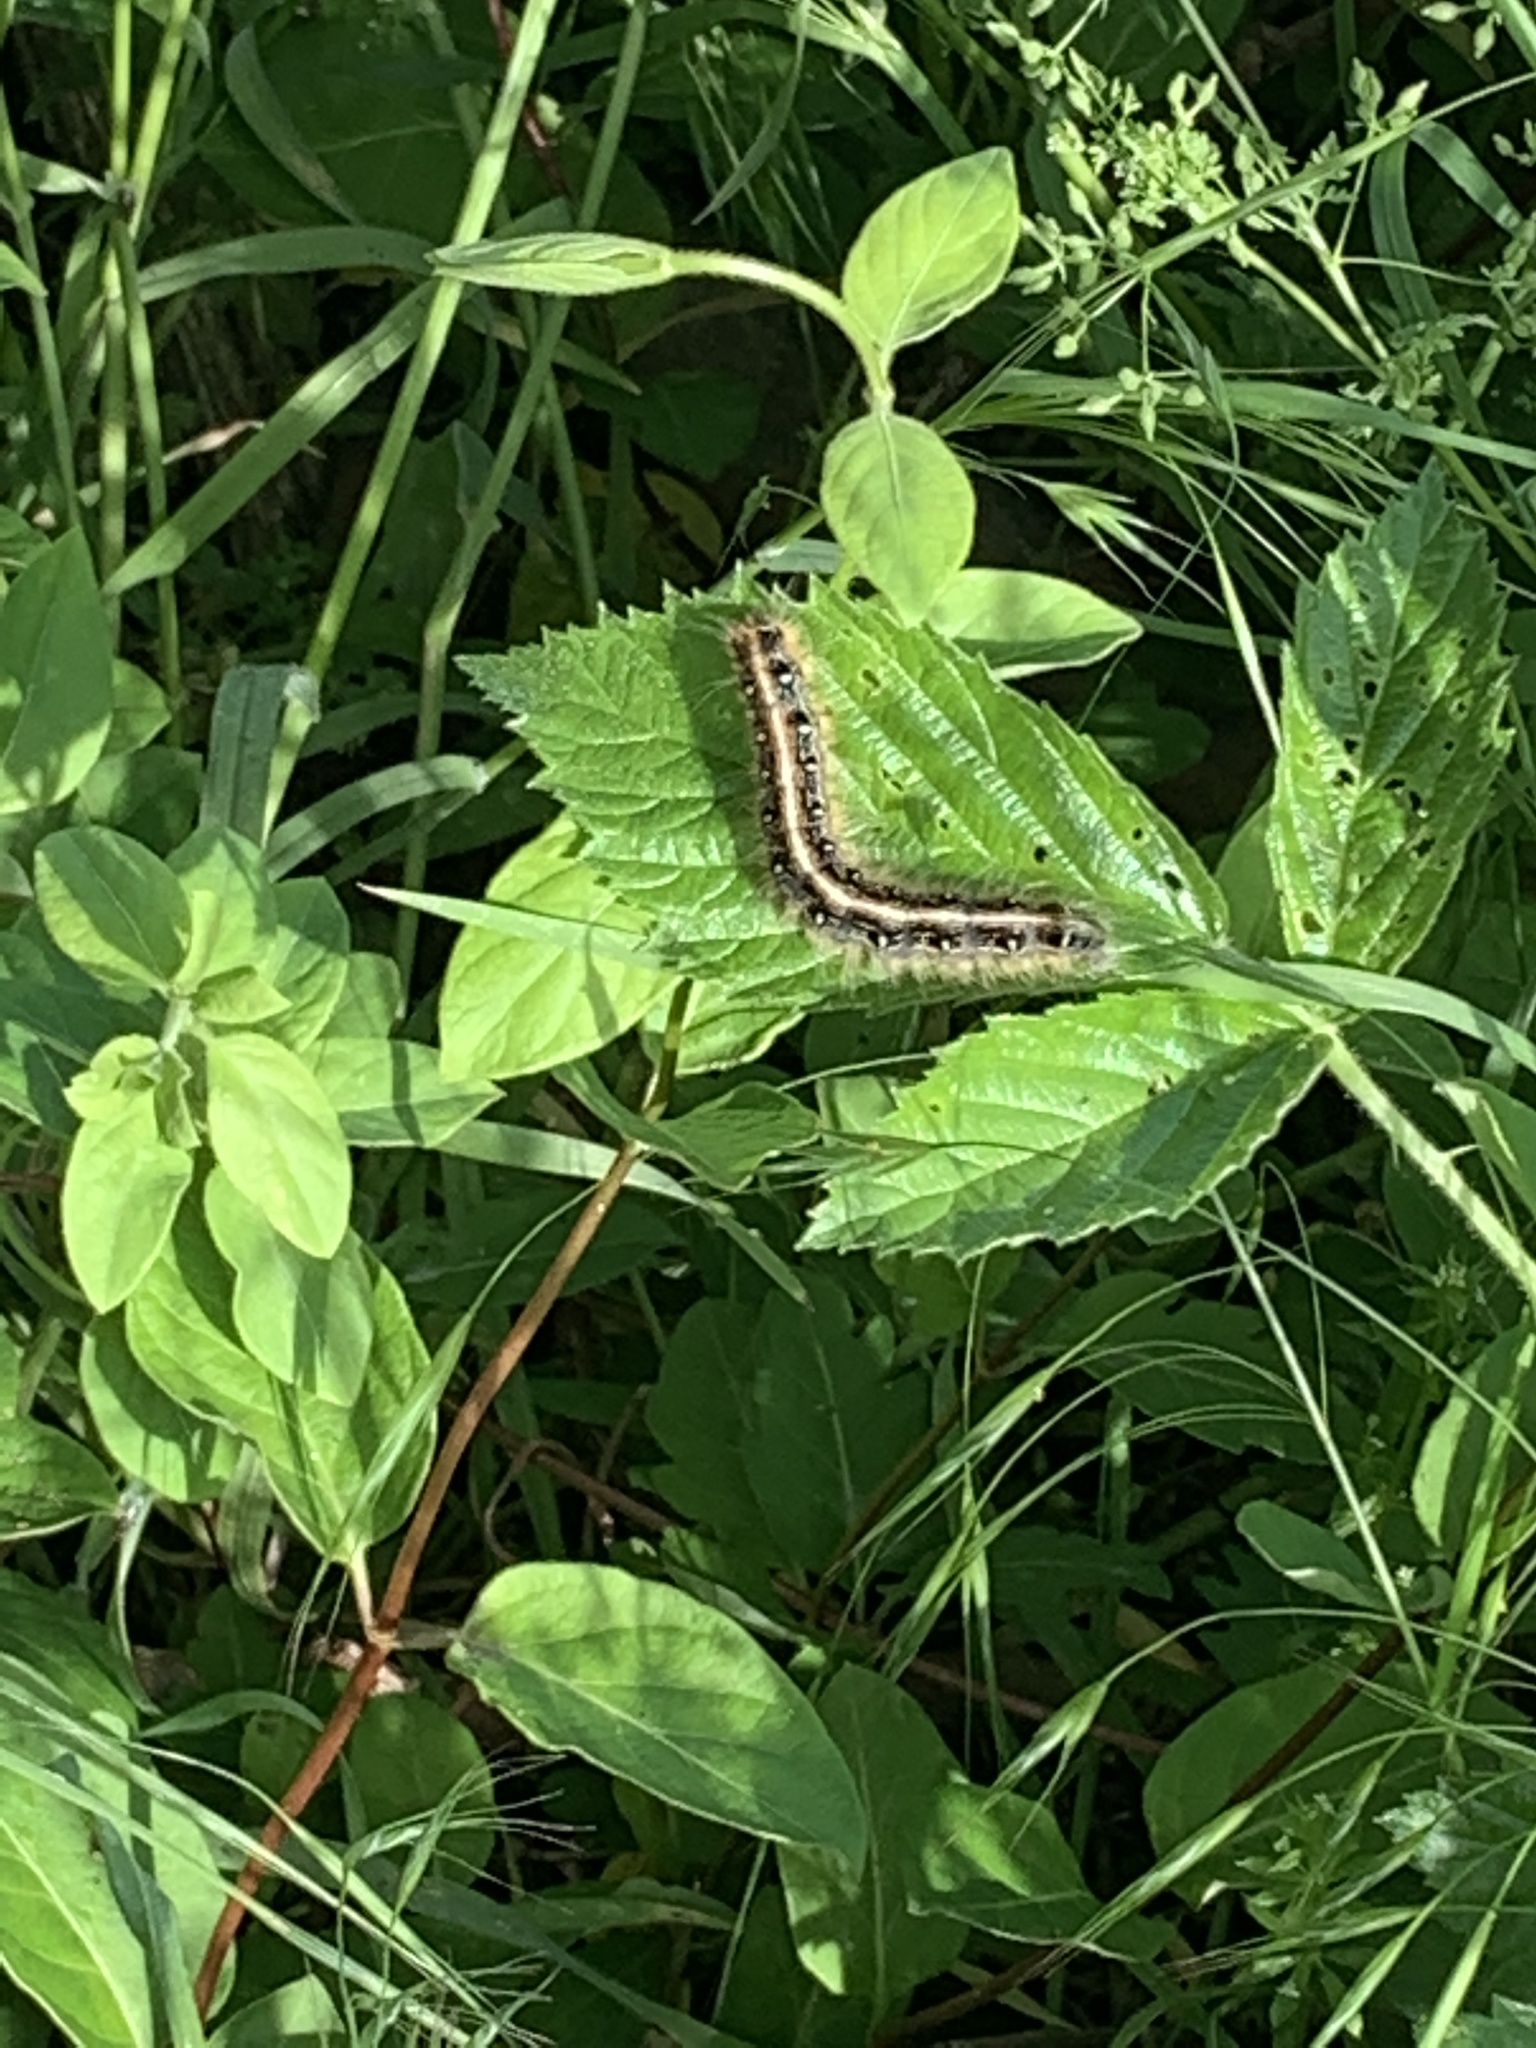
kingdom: Animalia
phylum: Arthropoda
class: Insecta
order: Lepidoptera
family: Lasiocampidae
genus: Malacosoma
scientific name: Malacosoma americana
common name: Eastern tent caterpillar moth
